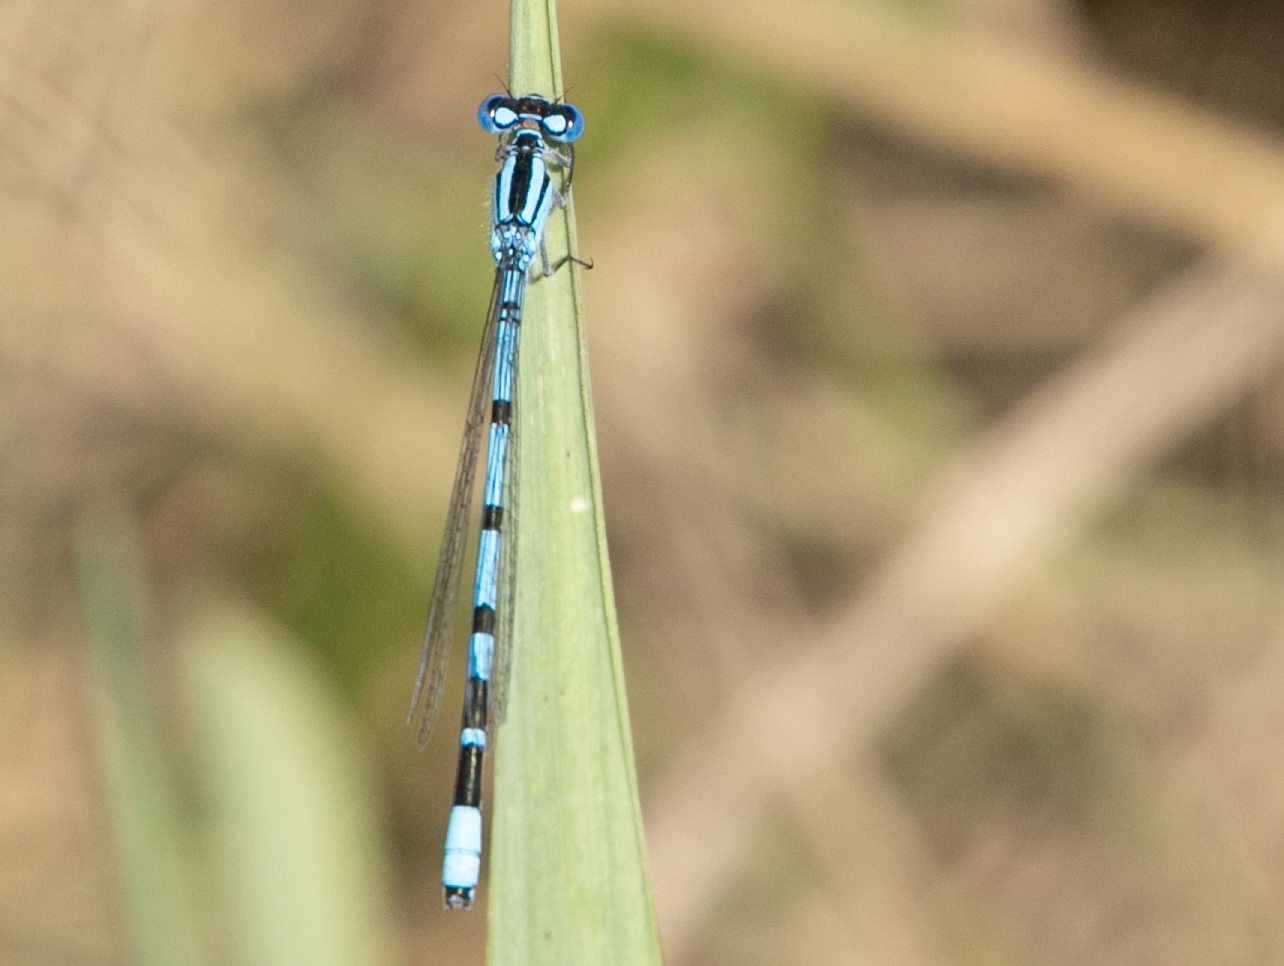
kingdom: Animalia
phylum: Arthropoda
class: Insecta
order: Odonata
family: Coenagrionidae
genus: Enallagma
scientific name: Enallagma cyathigerum
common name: Common blue damselfly
